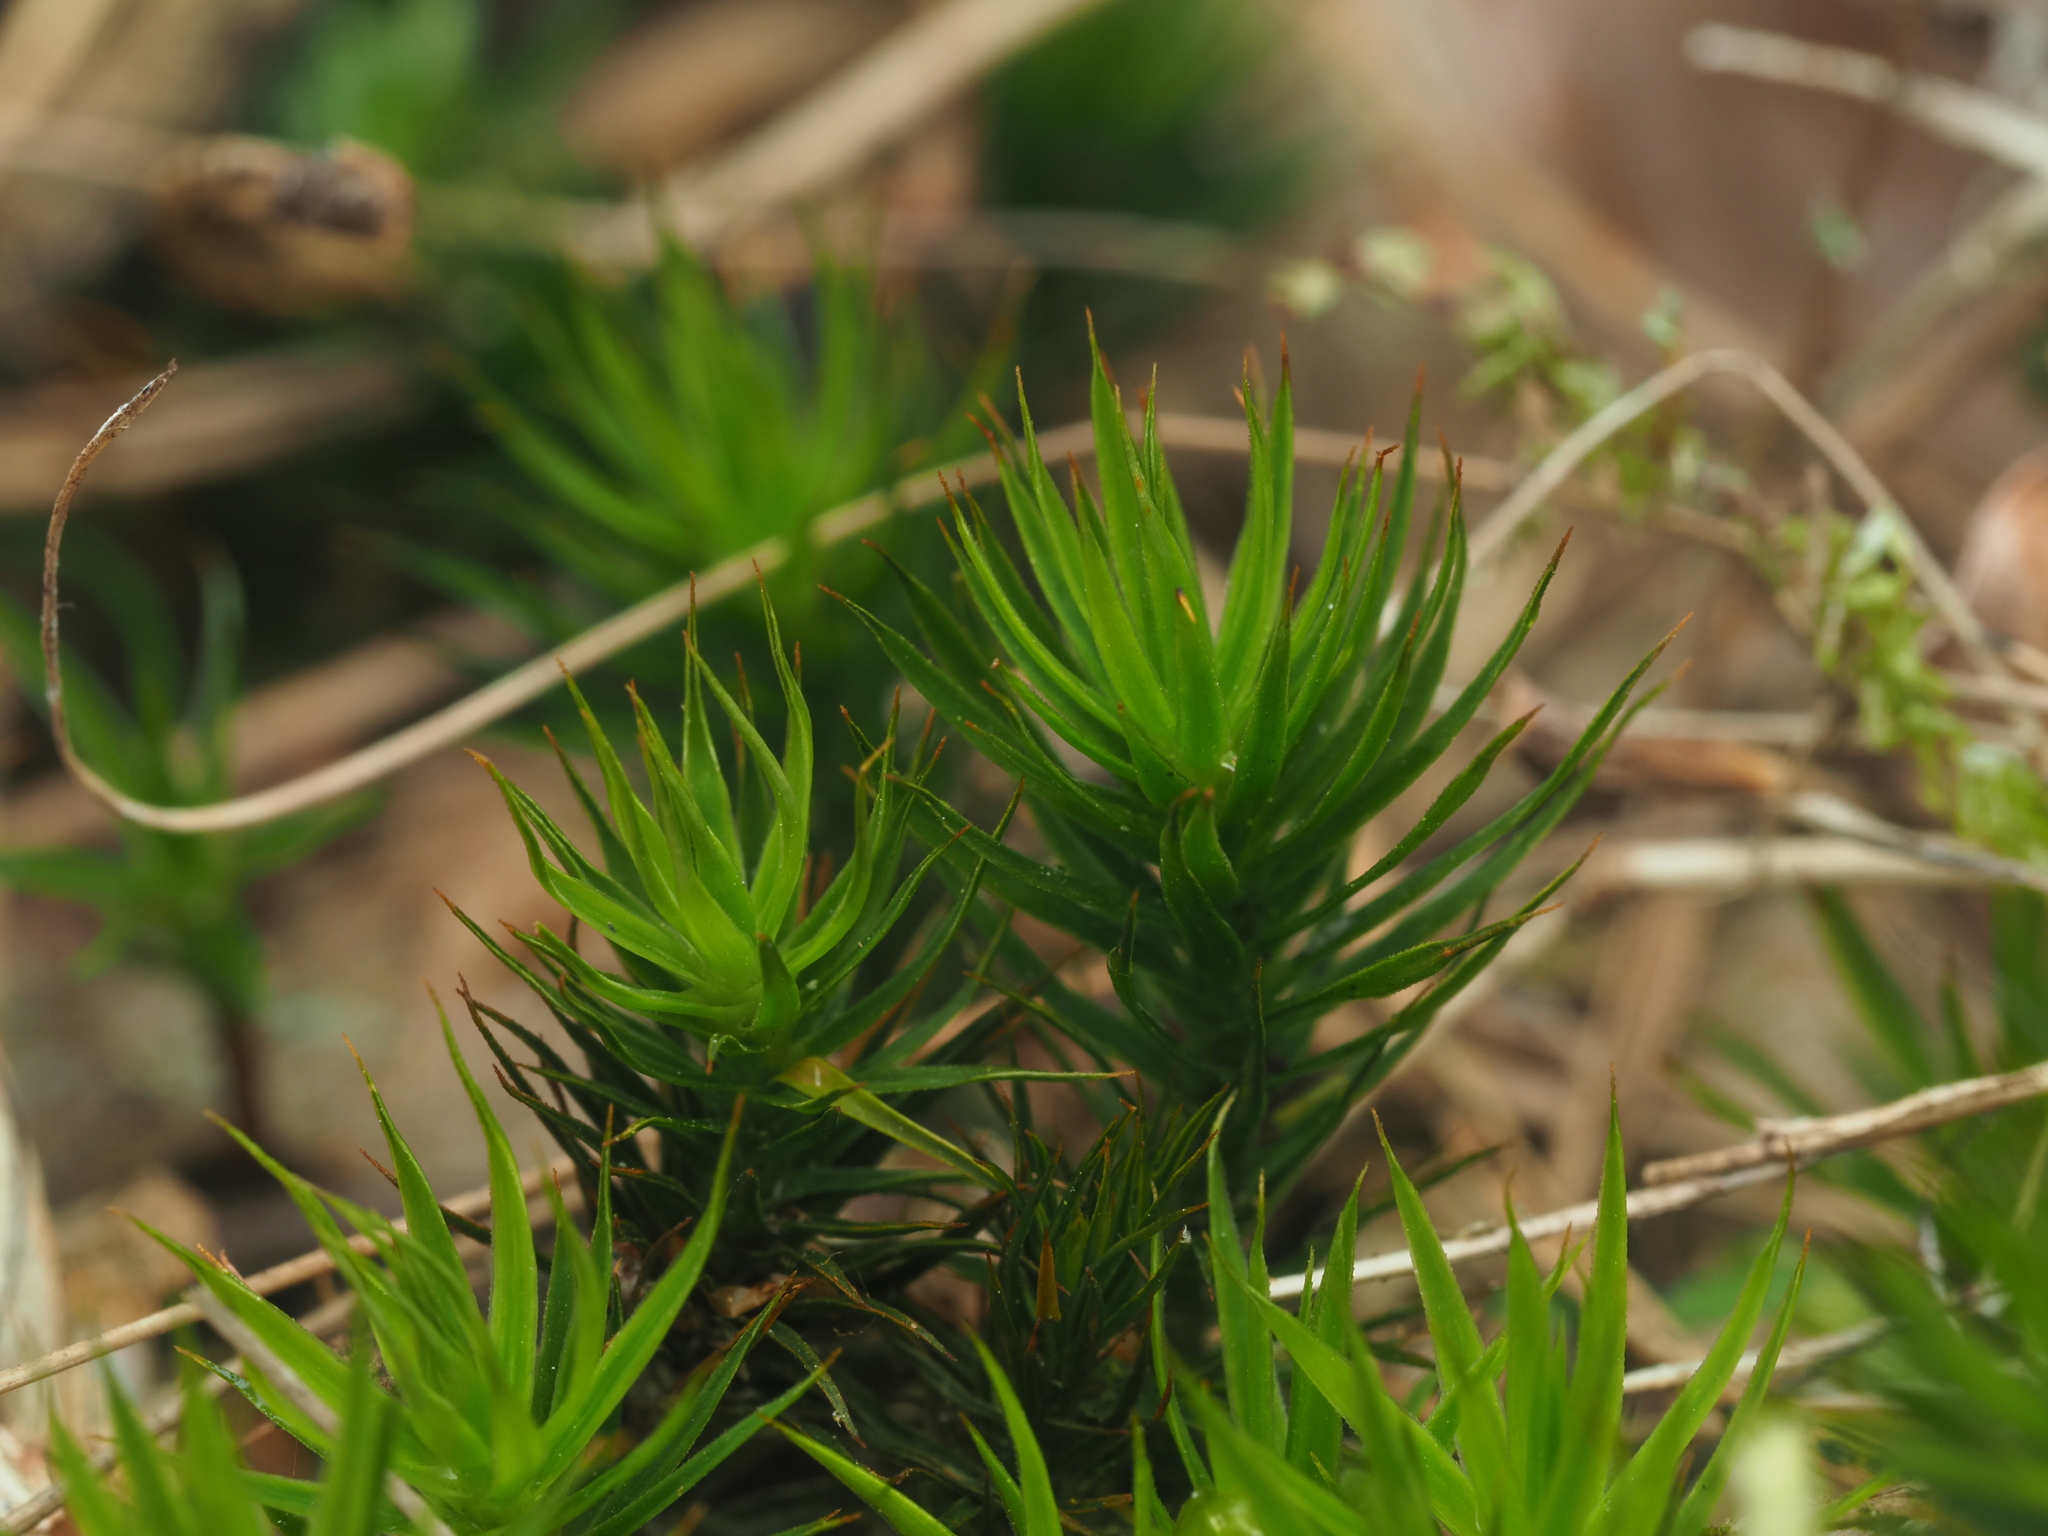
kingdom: Plantae
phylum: Bryophyta
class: Polytrichopsida
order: Polytrichales
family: Polytrichaceae
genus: Polytrichum
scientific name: Polytrichum formosum
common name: Bank haircap moss
